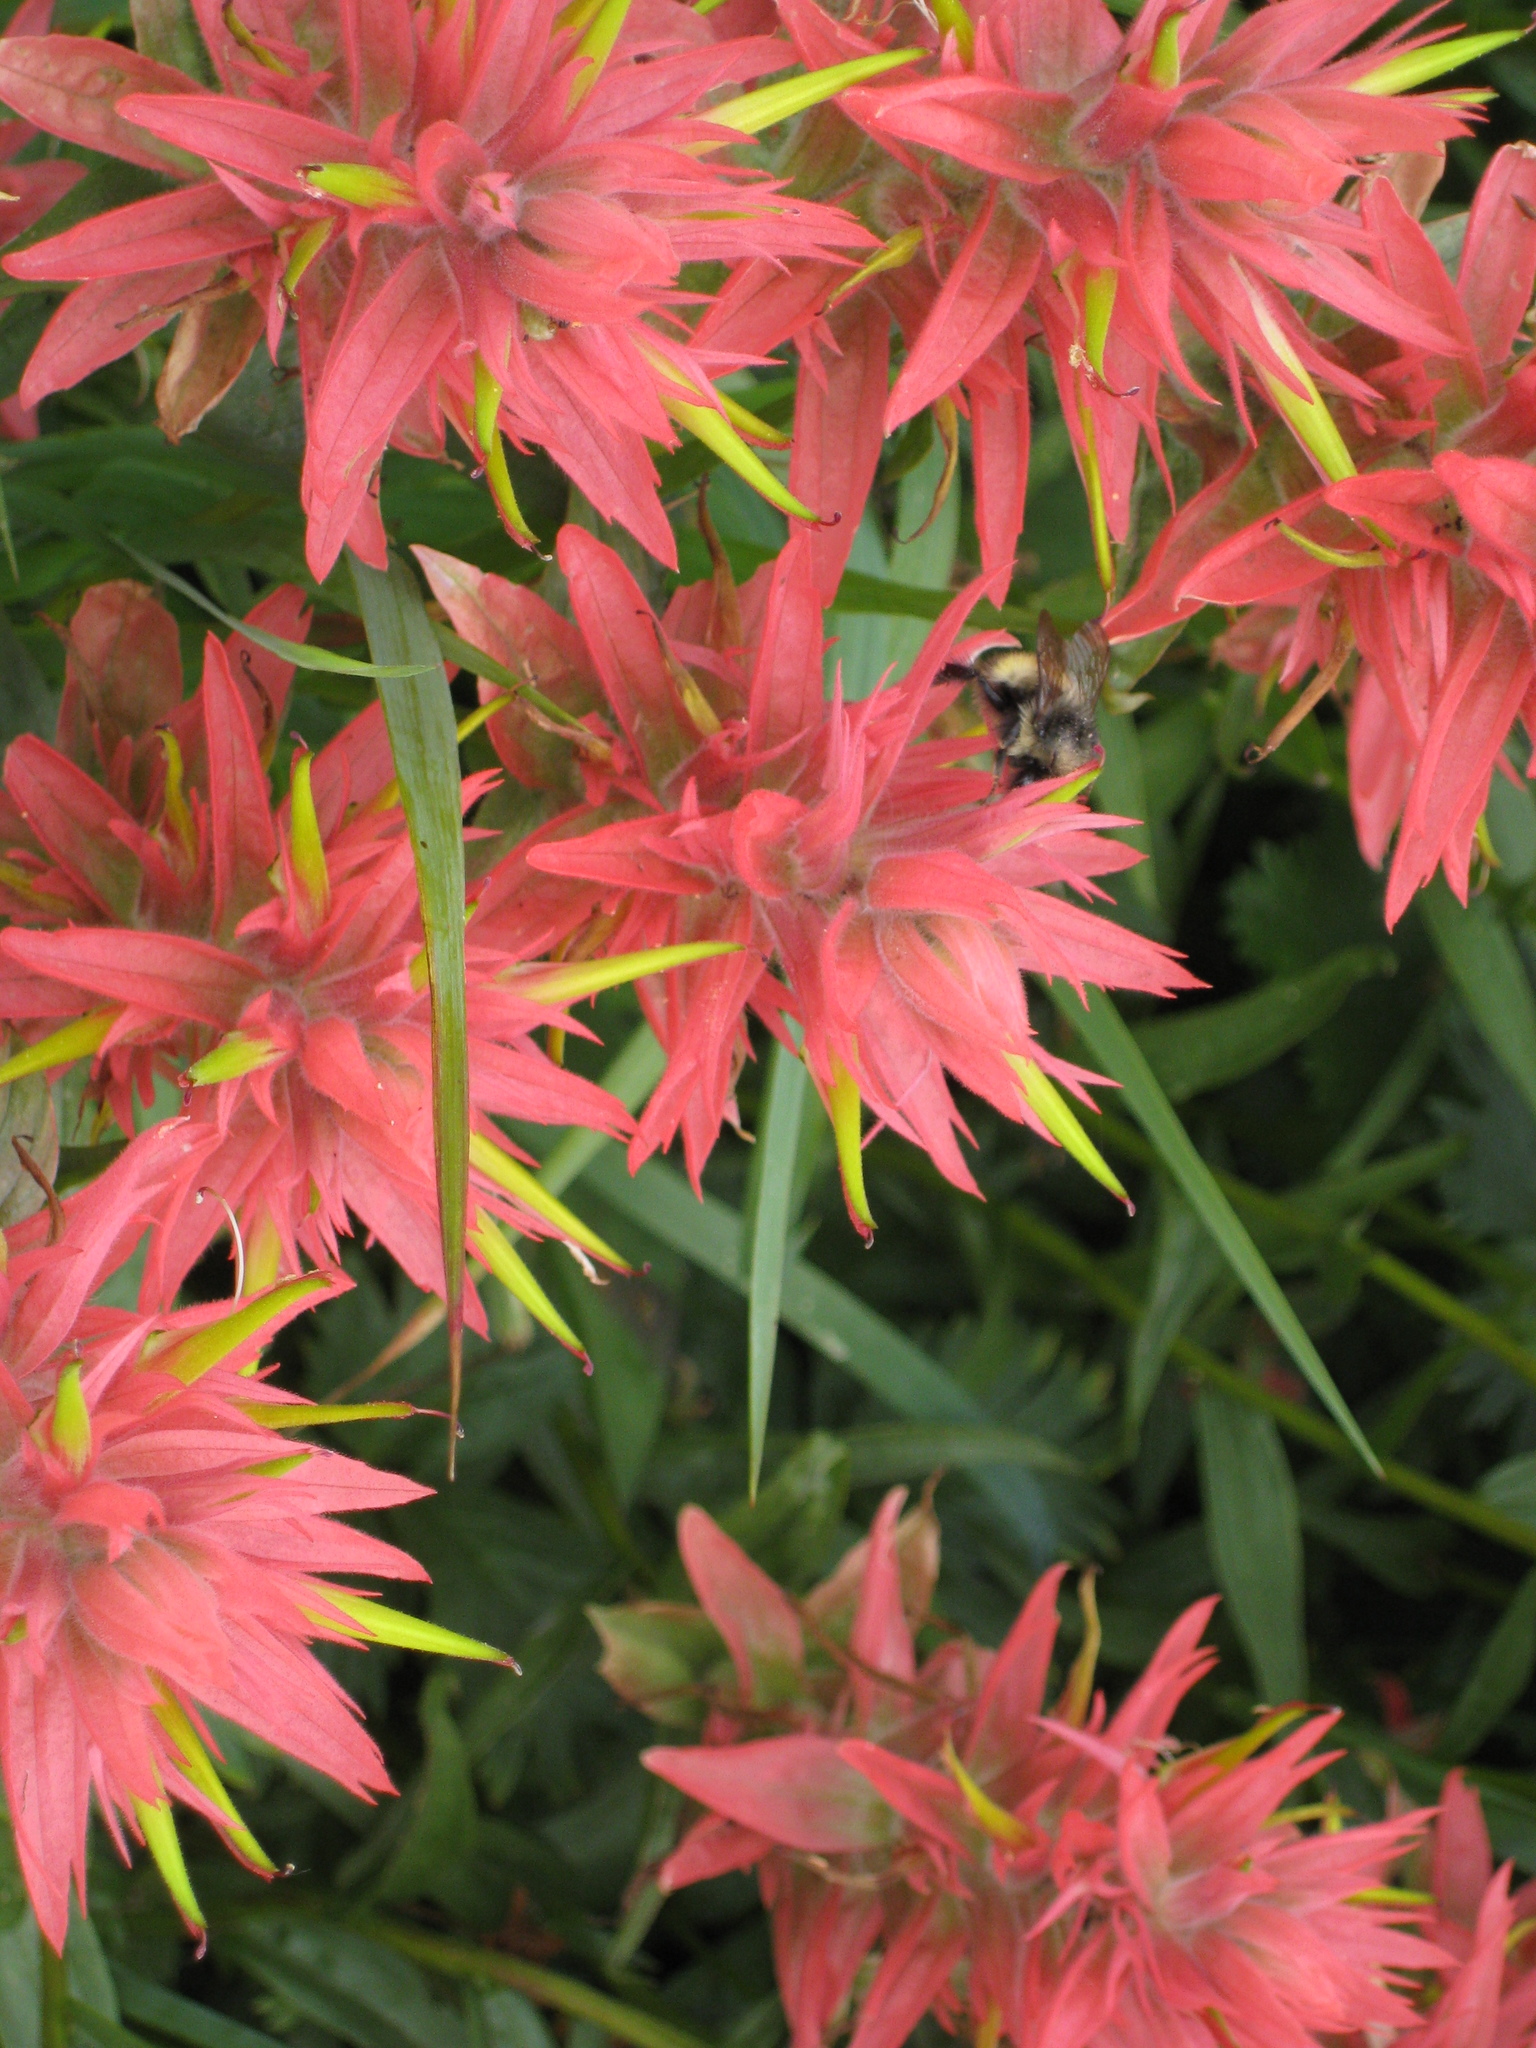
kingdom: Animalia
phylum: Arthropoda
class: Insecta
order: Hymenoptera
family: Apidae
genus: Bombus
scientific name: Bombus
